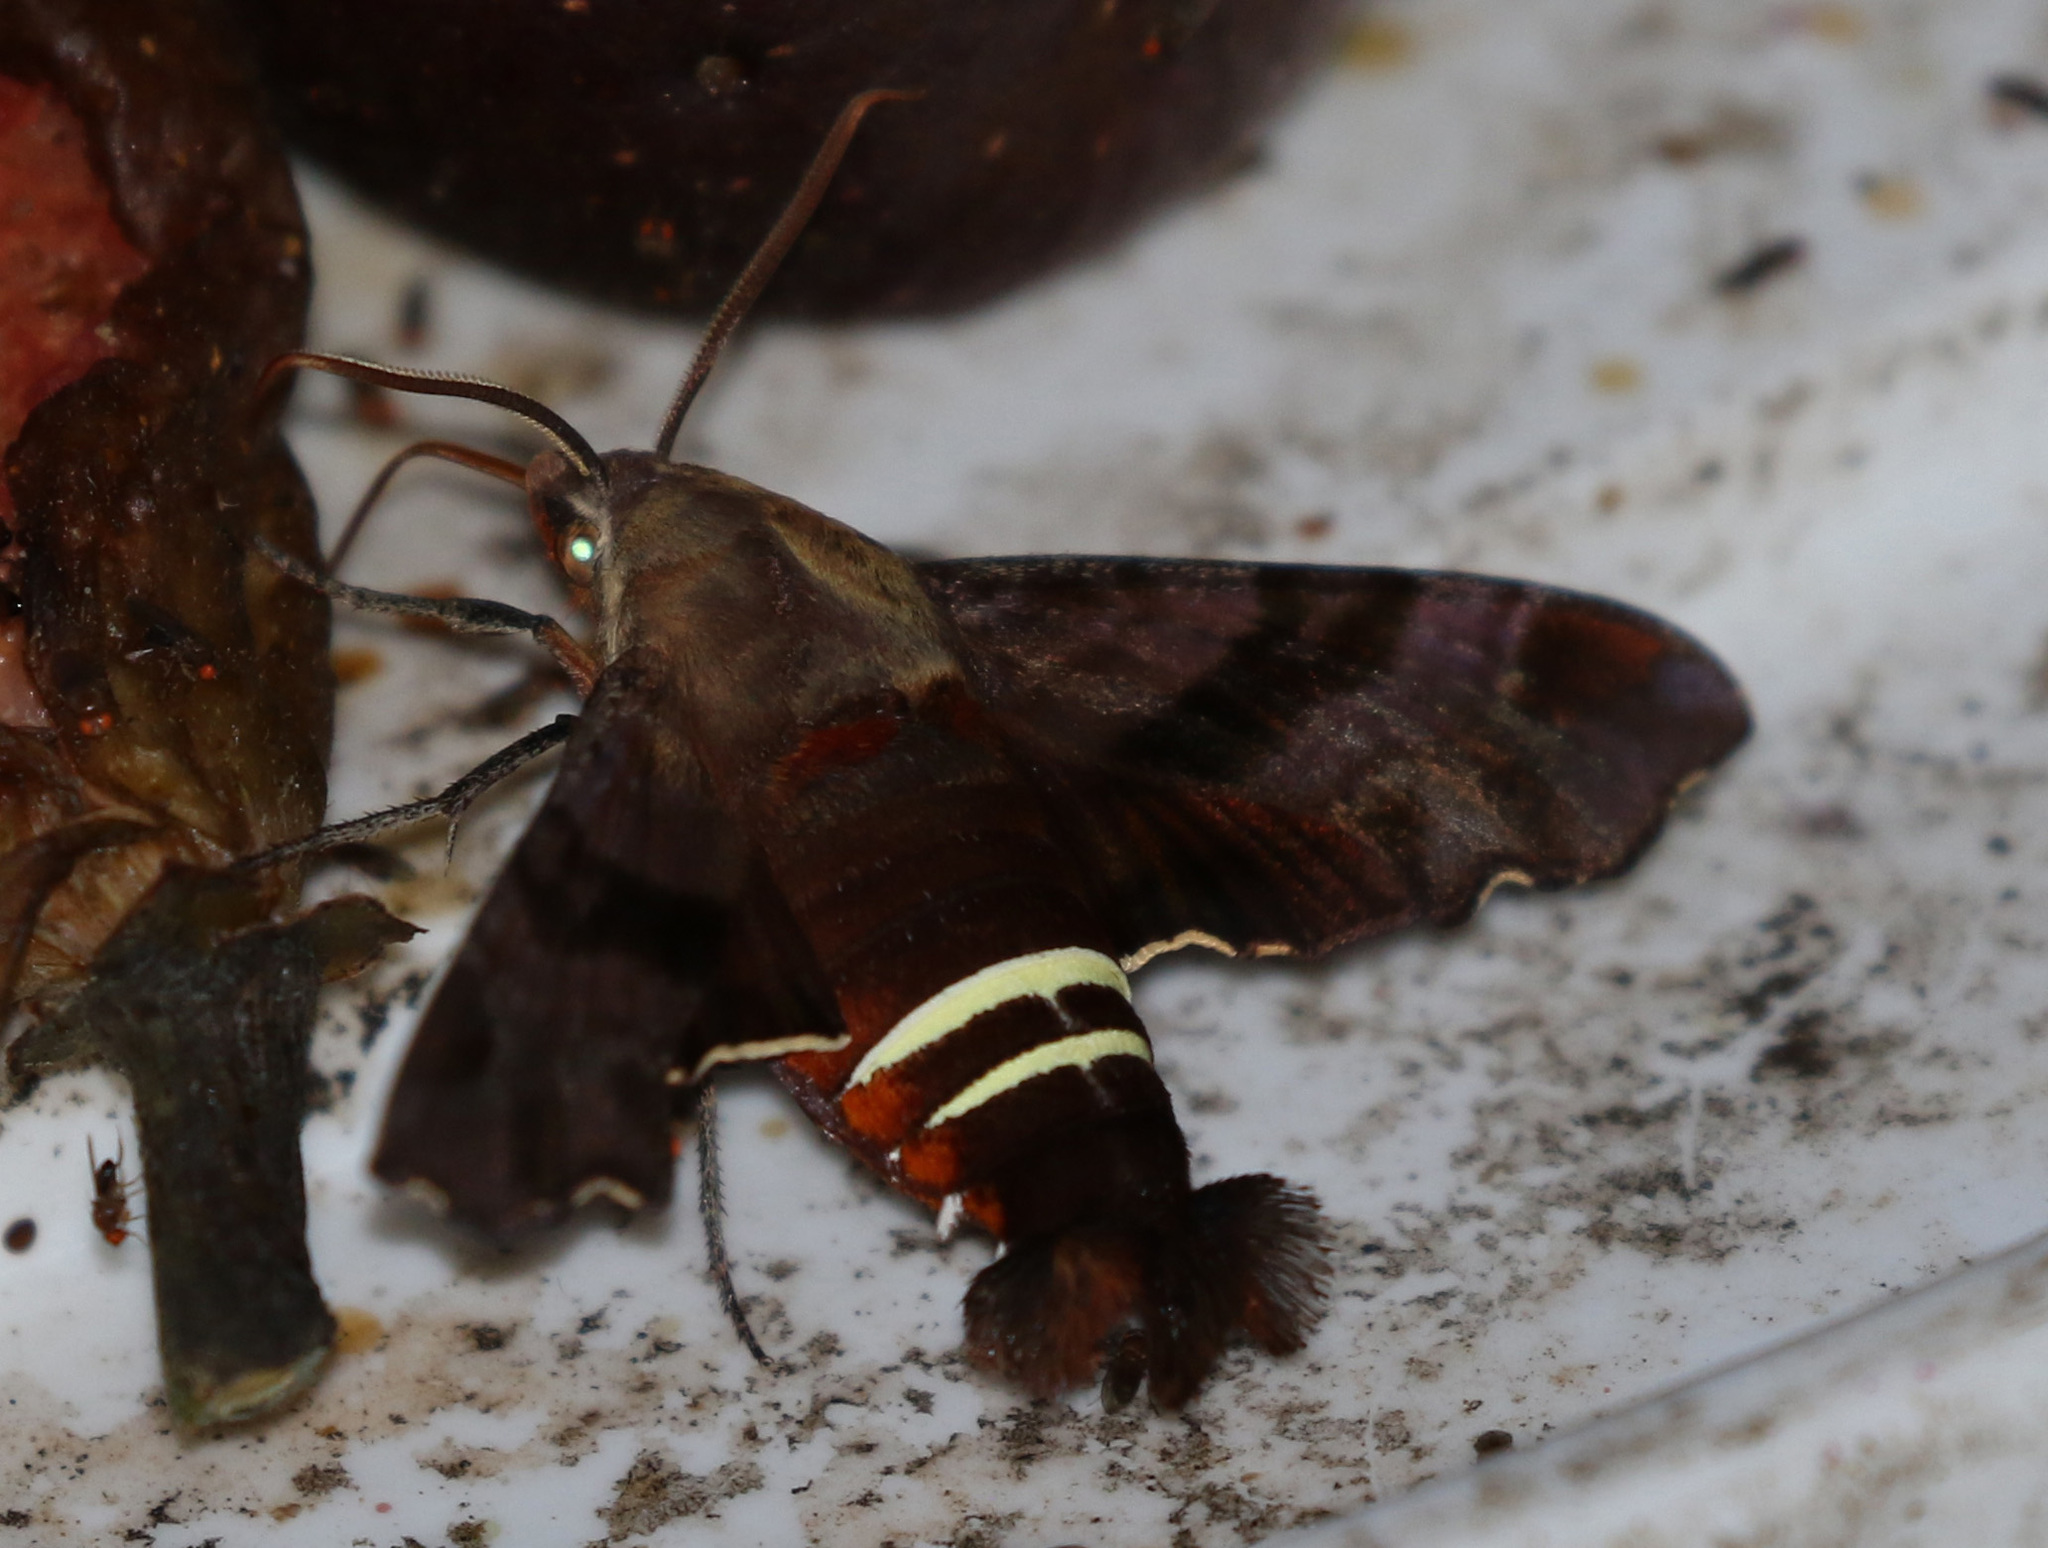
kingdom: Animalia
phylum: Arthropoda
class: Insecta
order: Lepidoptera
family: Sphingidae
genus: Amphion
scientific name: Amphion floridensis
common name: Nessus sphinx
